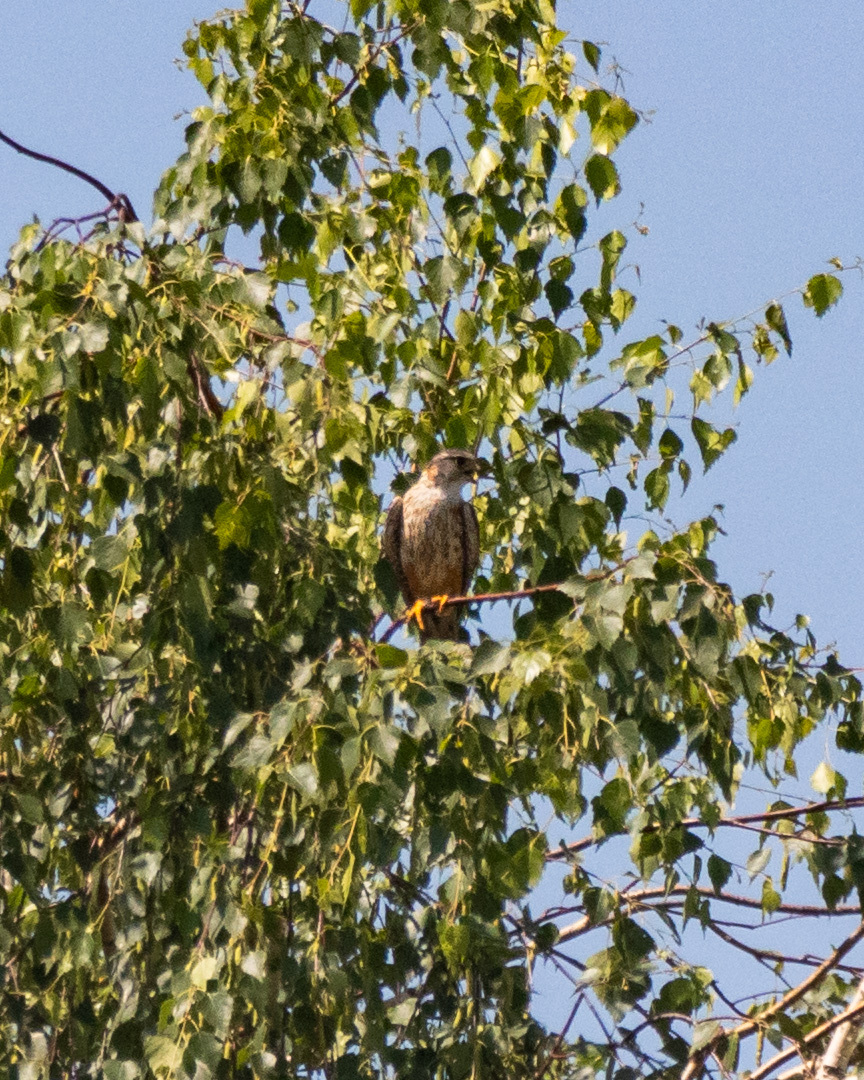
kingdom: Animalia
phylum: Chordata
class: Aves
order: Falconiformes
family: Falconidae
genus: Falco
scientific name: Falco columbarius
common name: Merlin
